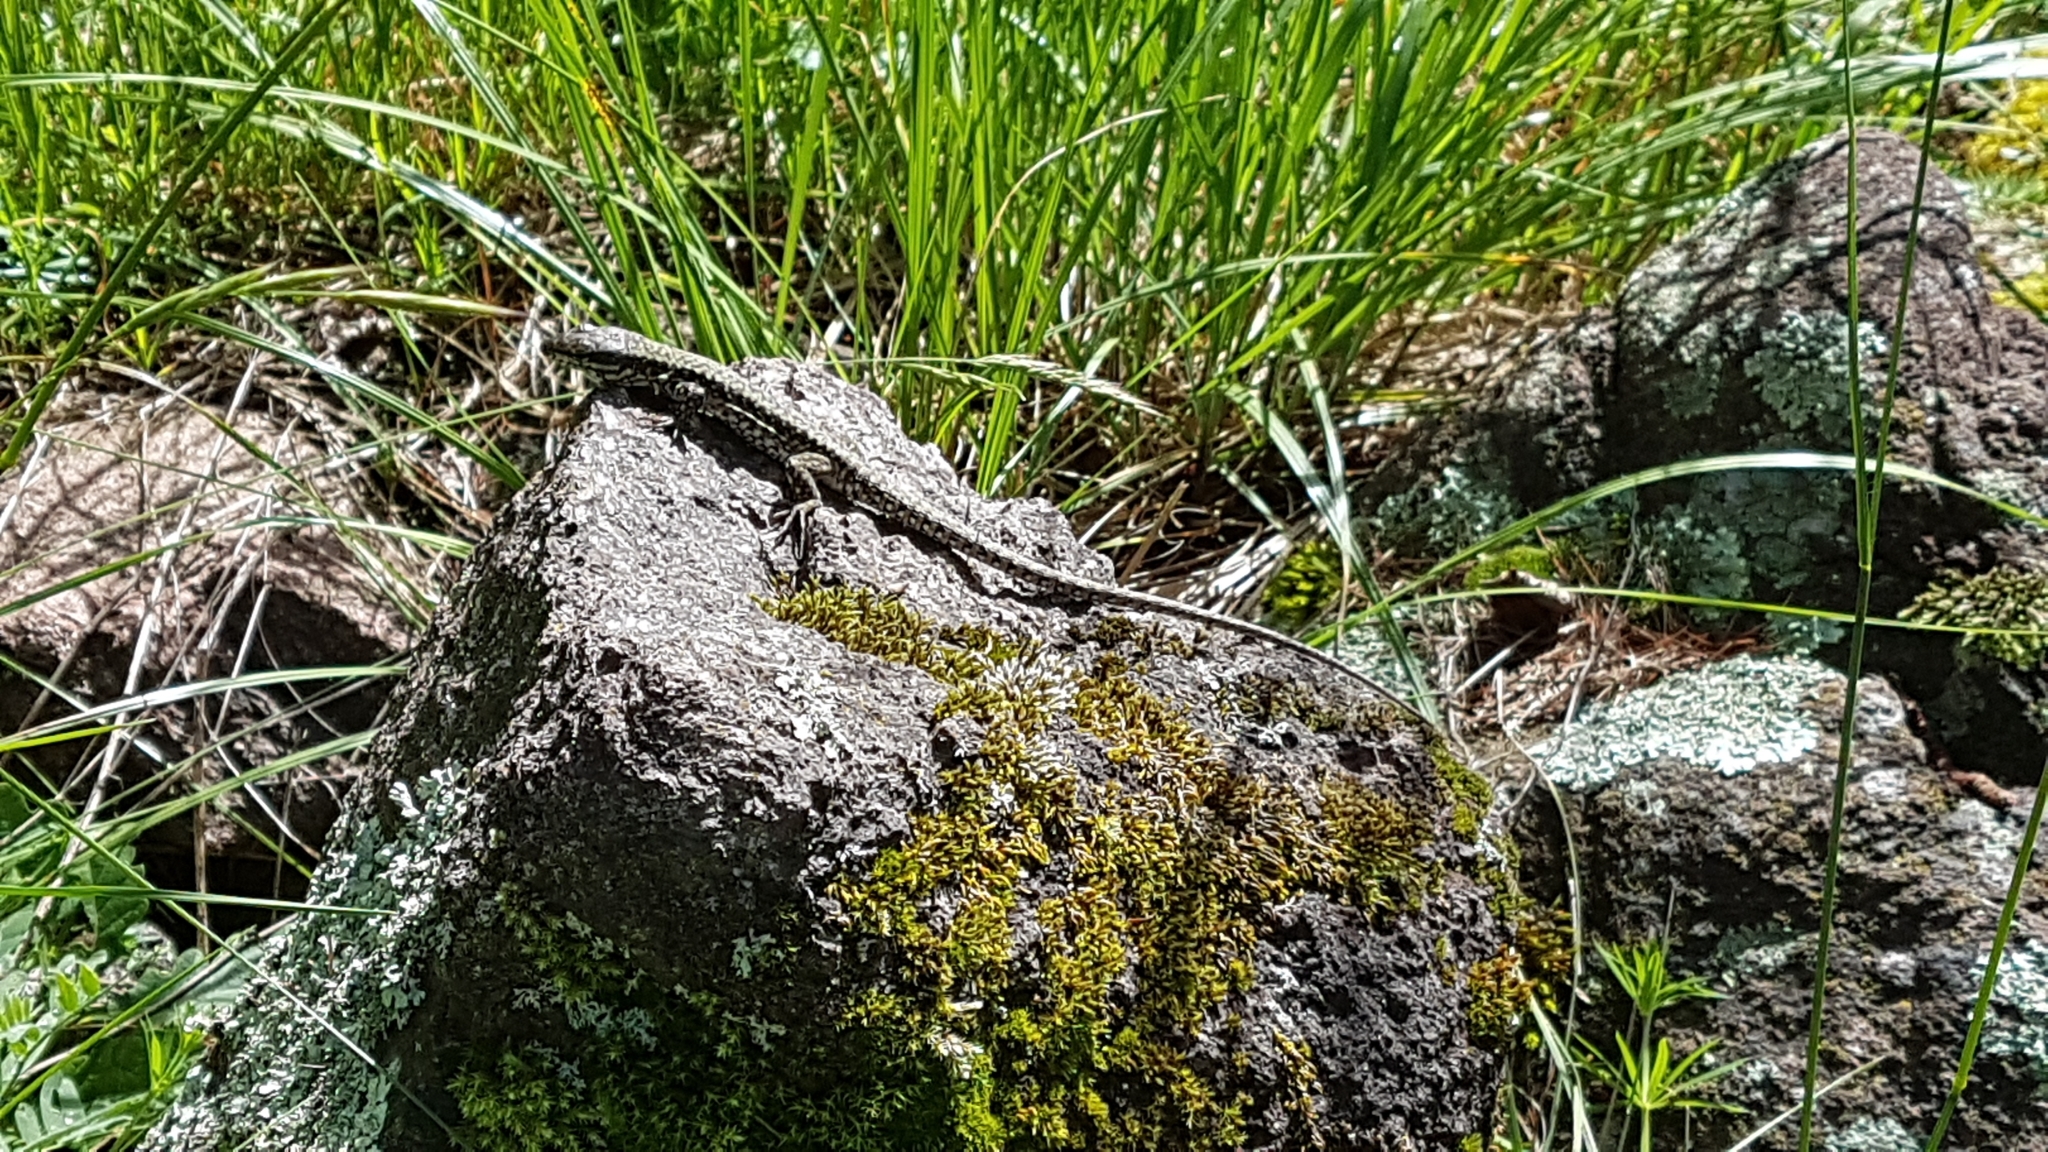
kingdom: Animalia
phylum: Chordata
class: Squamata
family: Lacertidae
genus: Podarcis
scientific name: Podarcis muralis
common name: Common wall lizard
